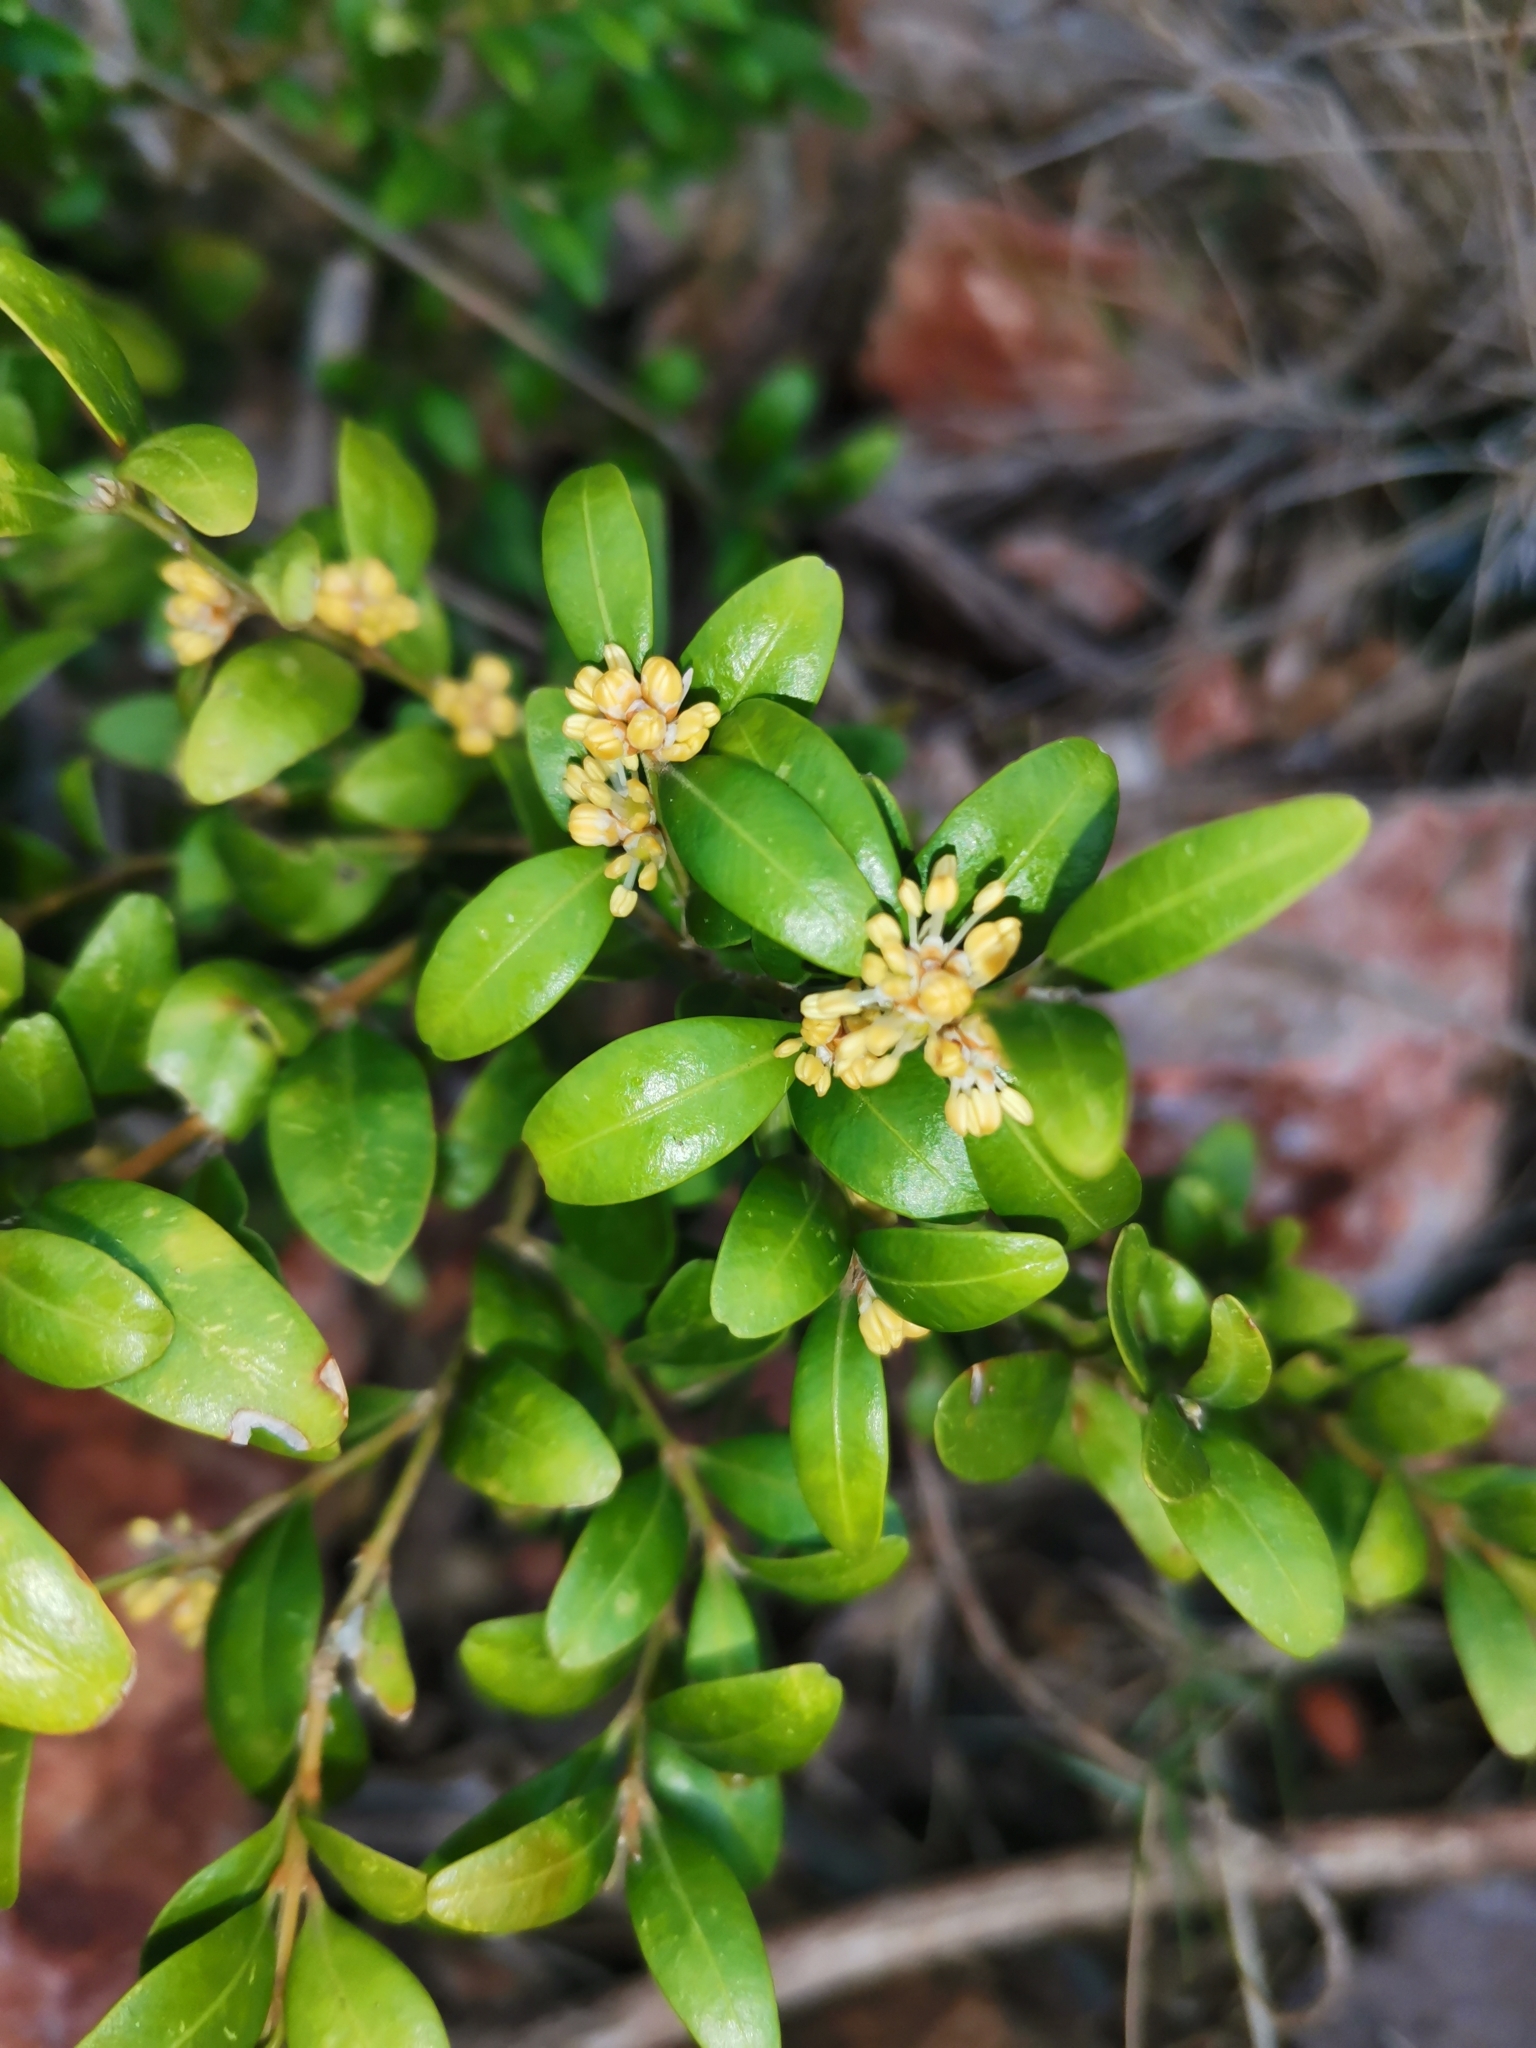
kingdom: Plantae
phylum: Tracheophyta
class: Magnoliopsida
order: Buxales
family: Buxaceae
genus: Buxus
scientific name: Buxus sempervirens
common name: Box
